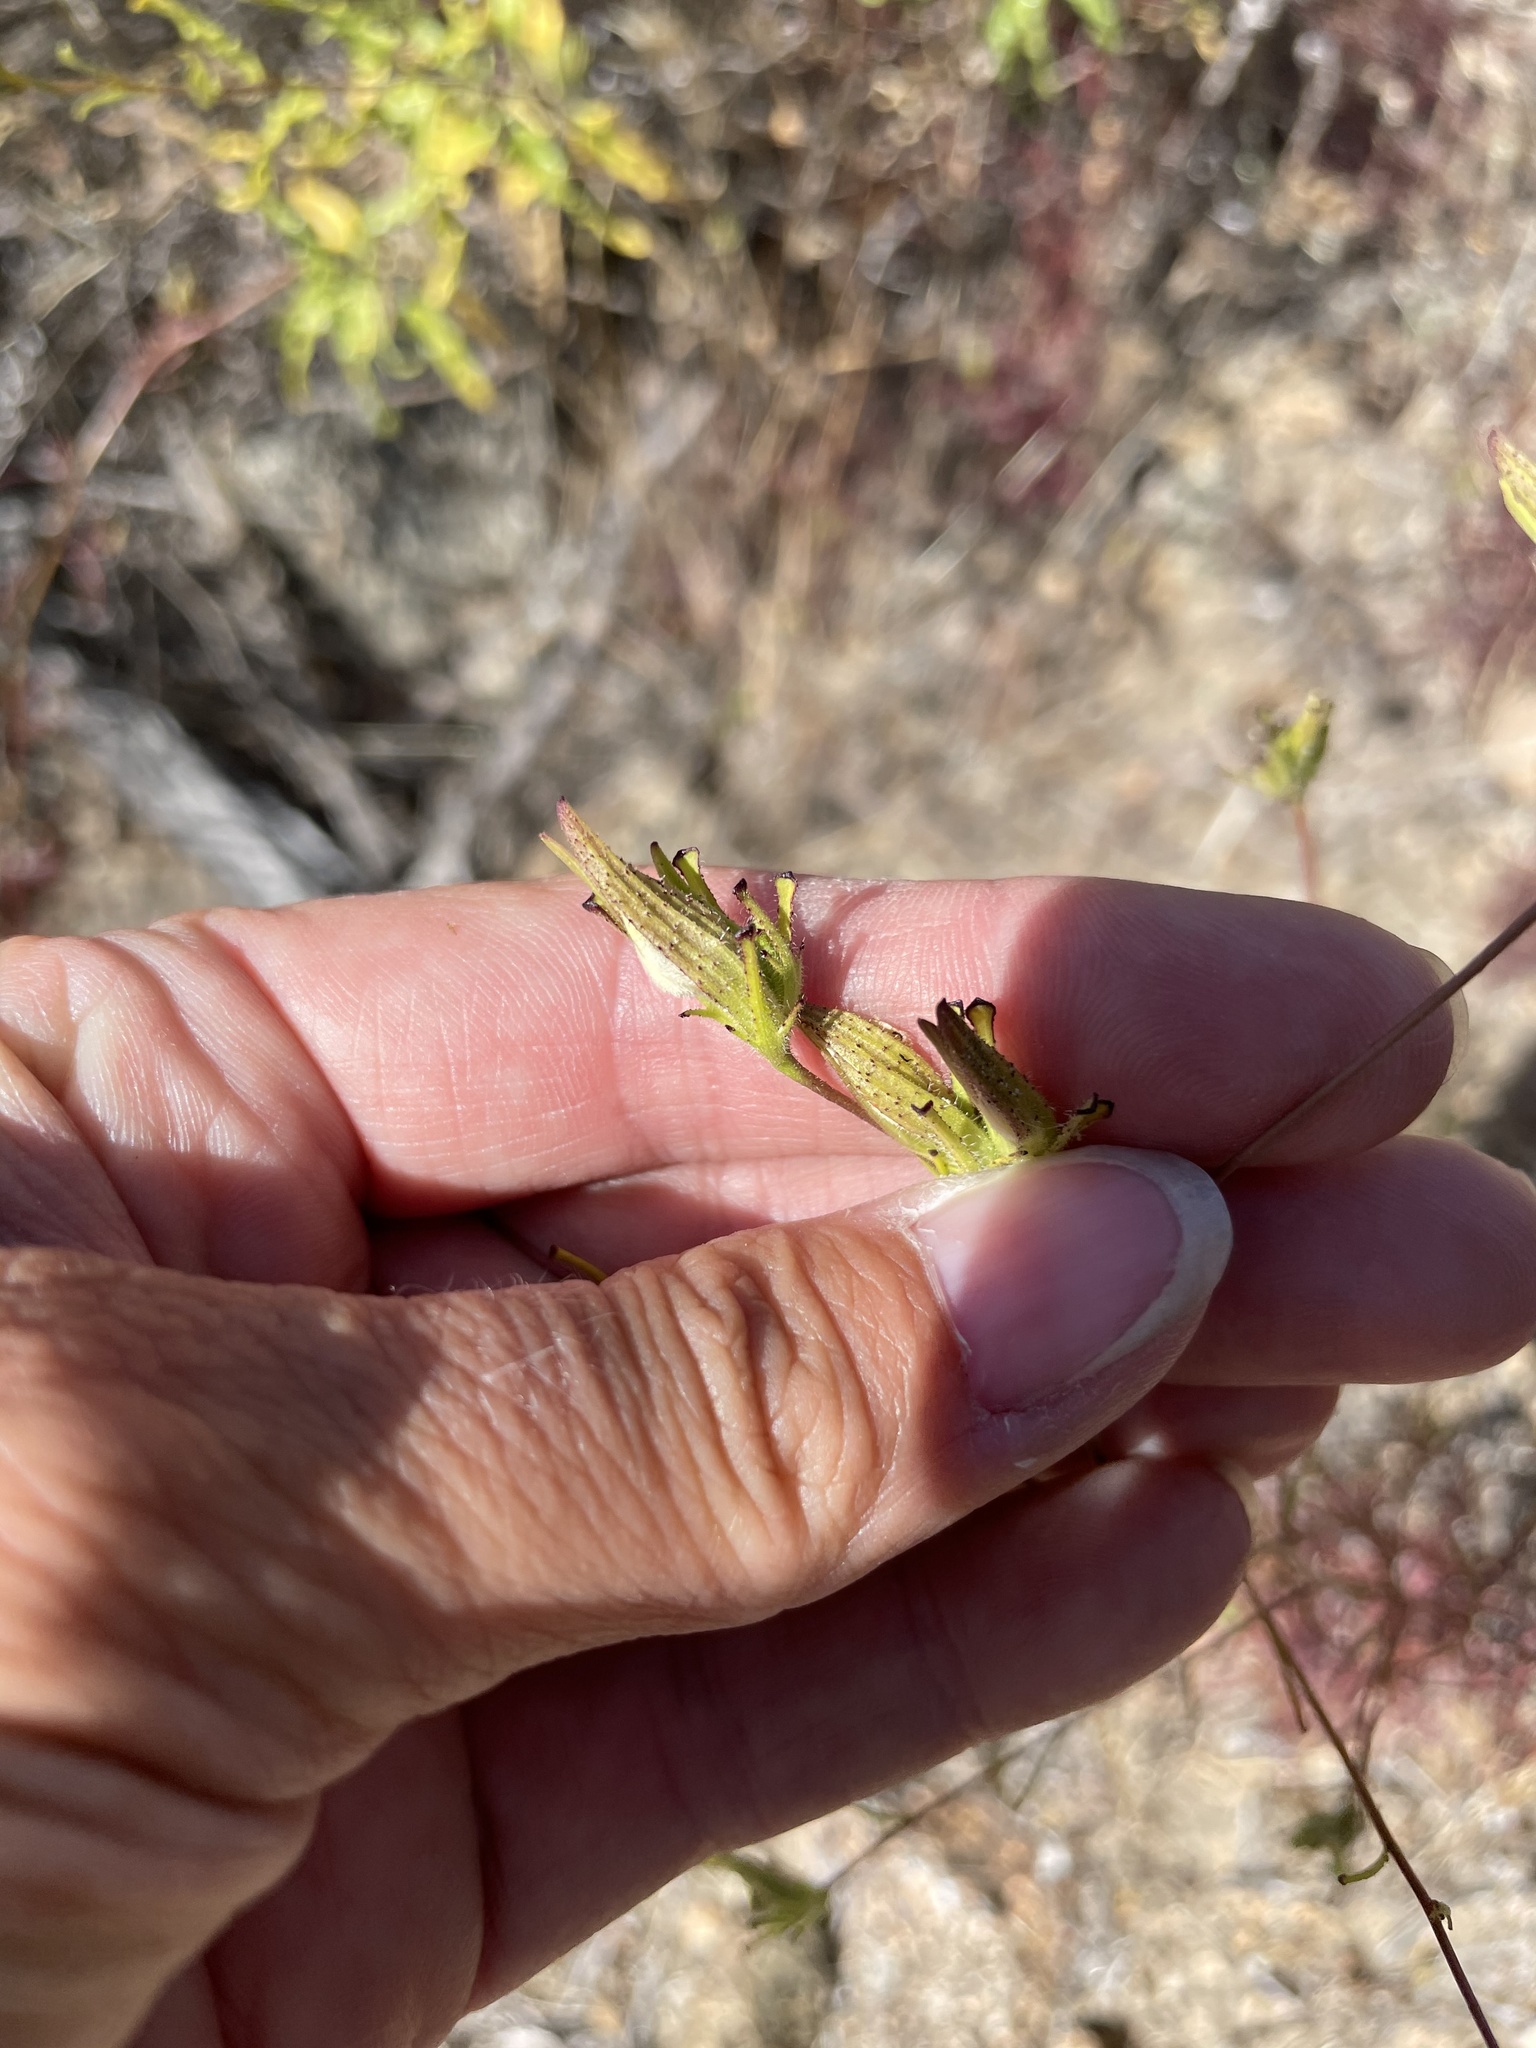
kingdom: Plantae
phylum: Tracheophyta
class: Magnoliopsida
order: Lamiales
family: Orobanchaceae
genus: Cordylanthus
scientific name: Cordylanthus rigidus
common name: Stiff-branch bird's-beak
